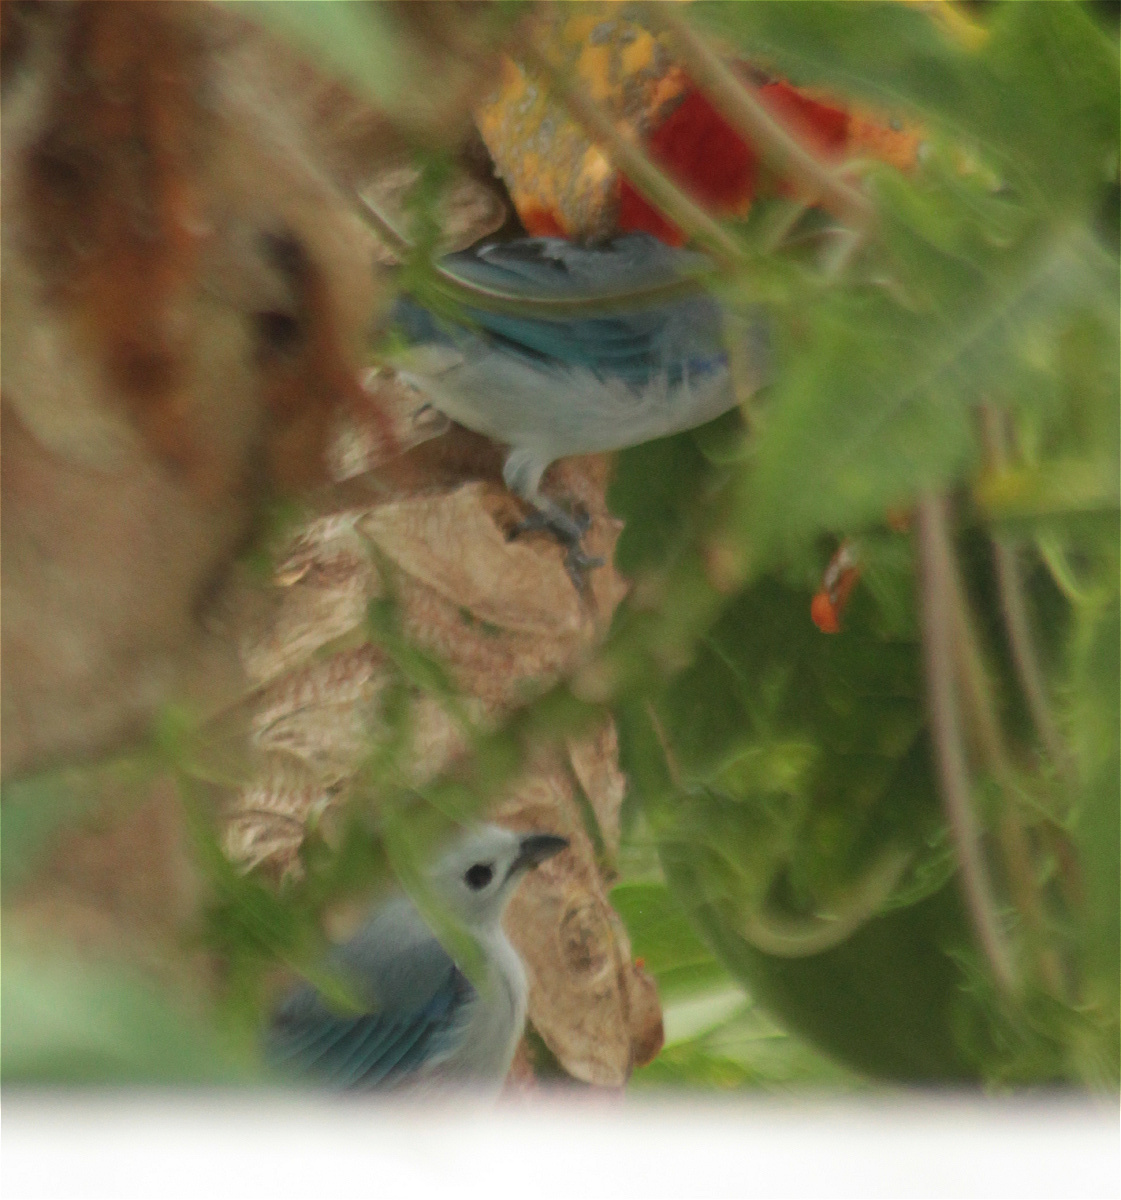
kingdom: Animalia
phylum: Chordata
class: Aves
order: Passeriformes
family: Thraupidae
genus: Thraupis
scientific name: Thraupis episcopus
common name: Blue-grey tanager
